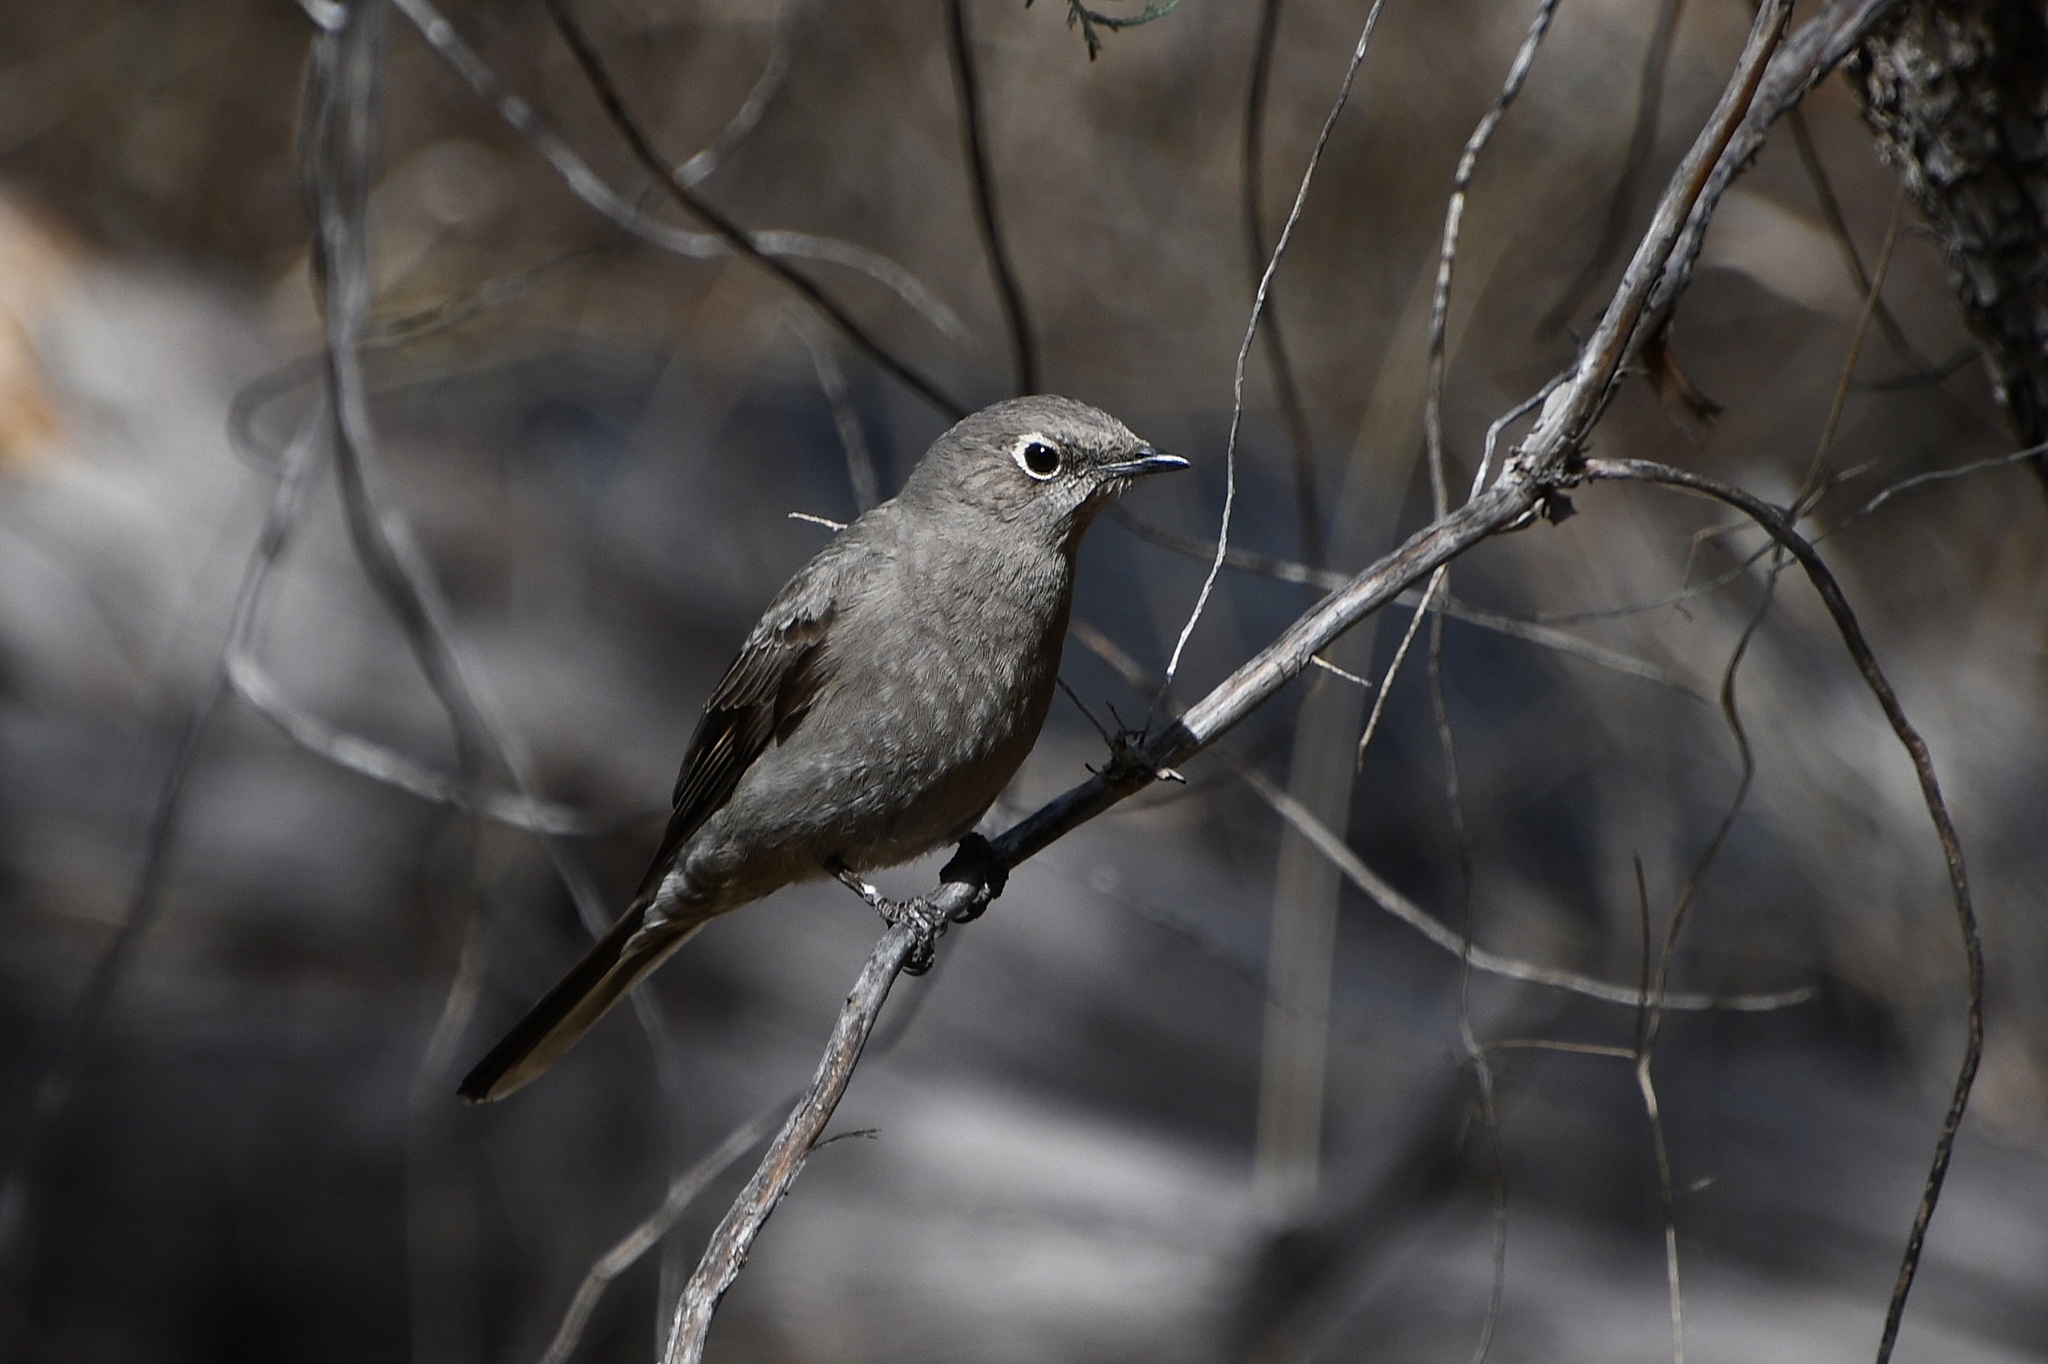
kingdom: Animalia
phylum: Chordata
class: Aves
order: Passeriformes
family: Turdidae
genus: Myadestes
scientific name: Myadestes townsendi
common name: Townsend's solitaire
